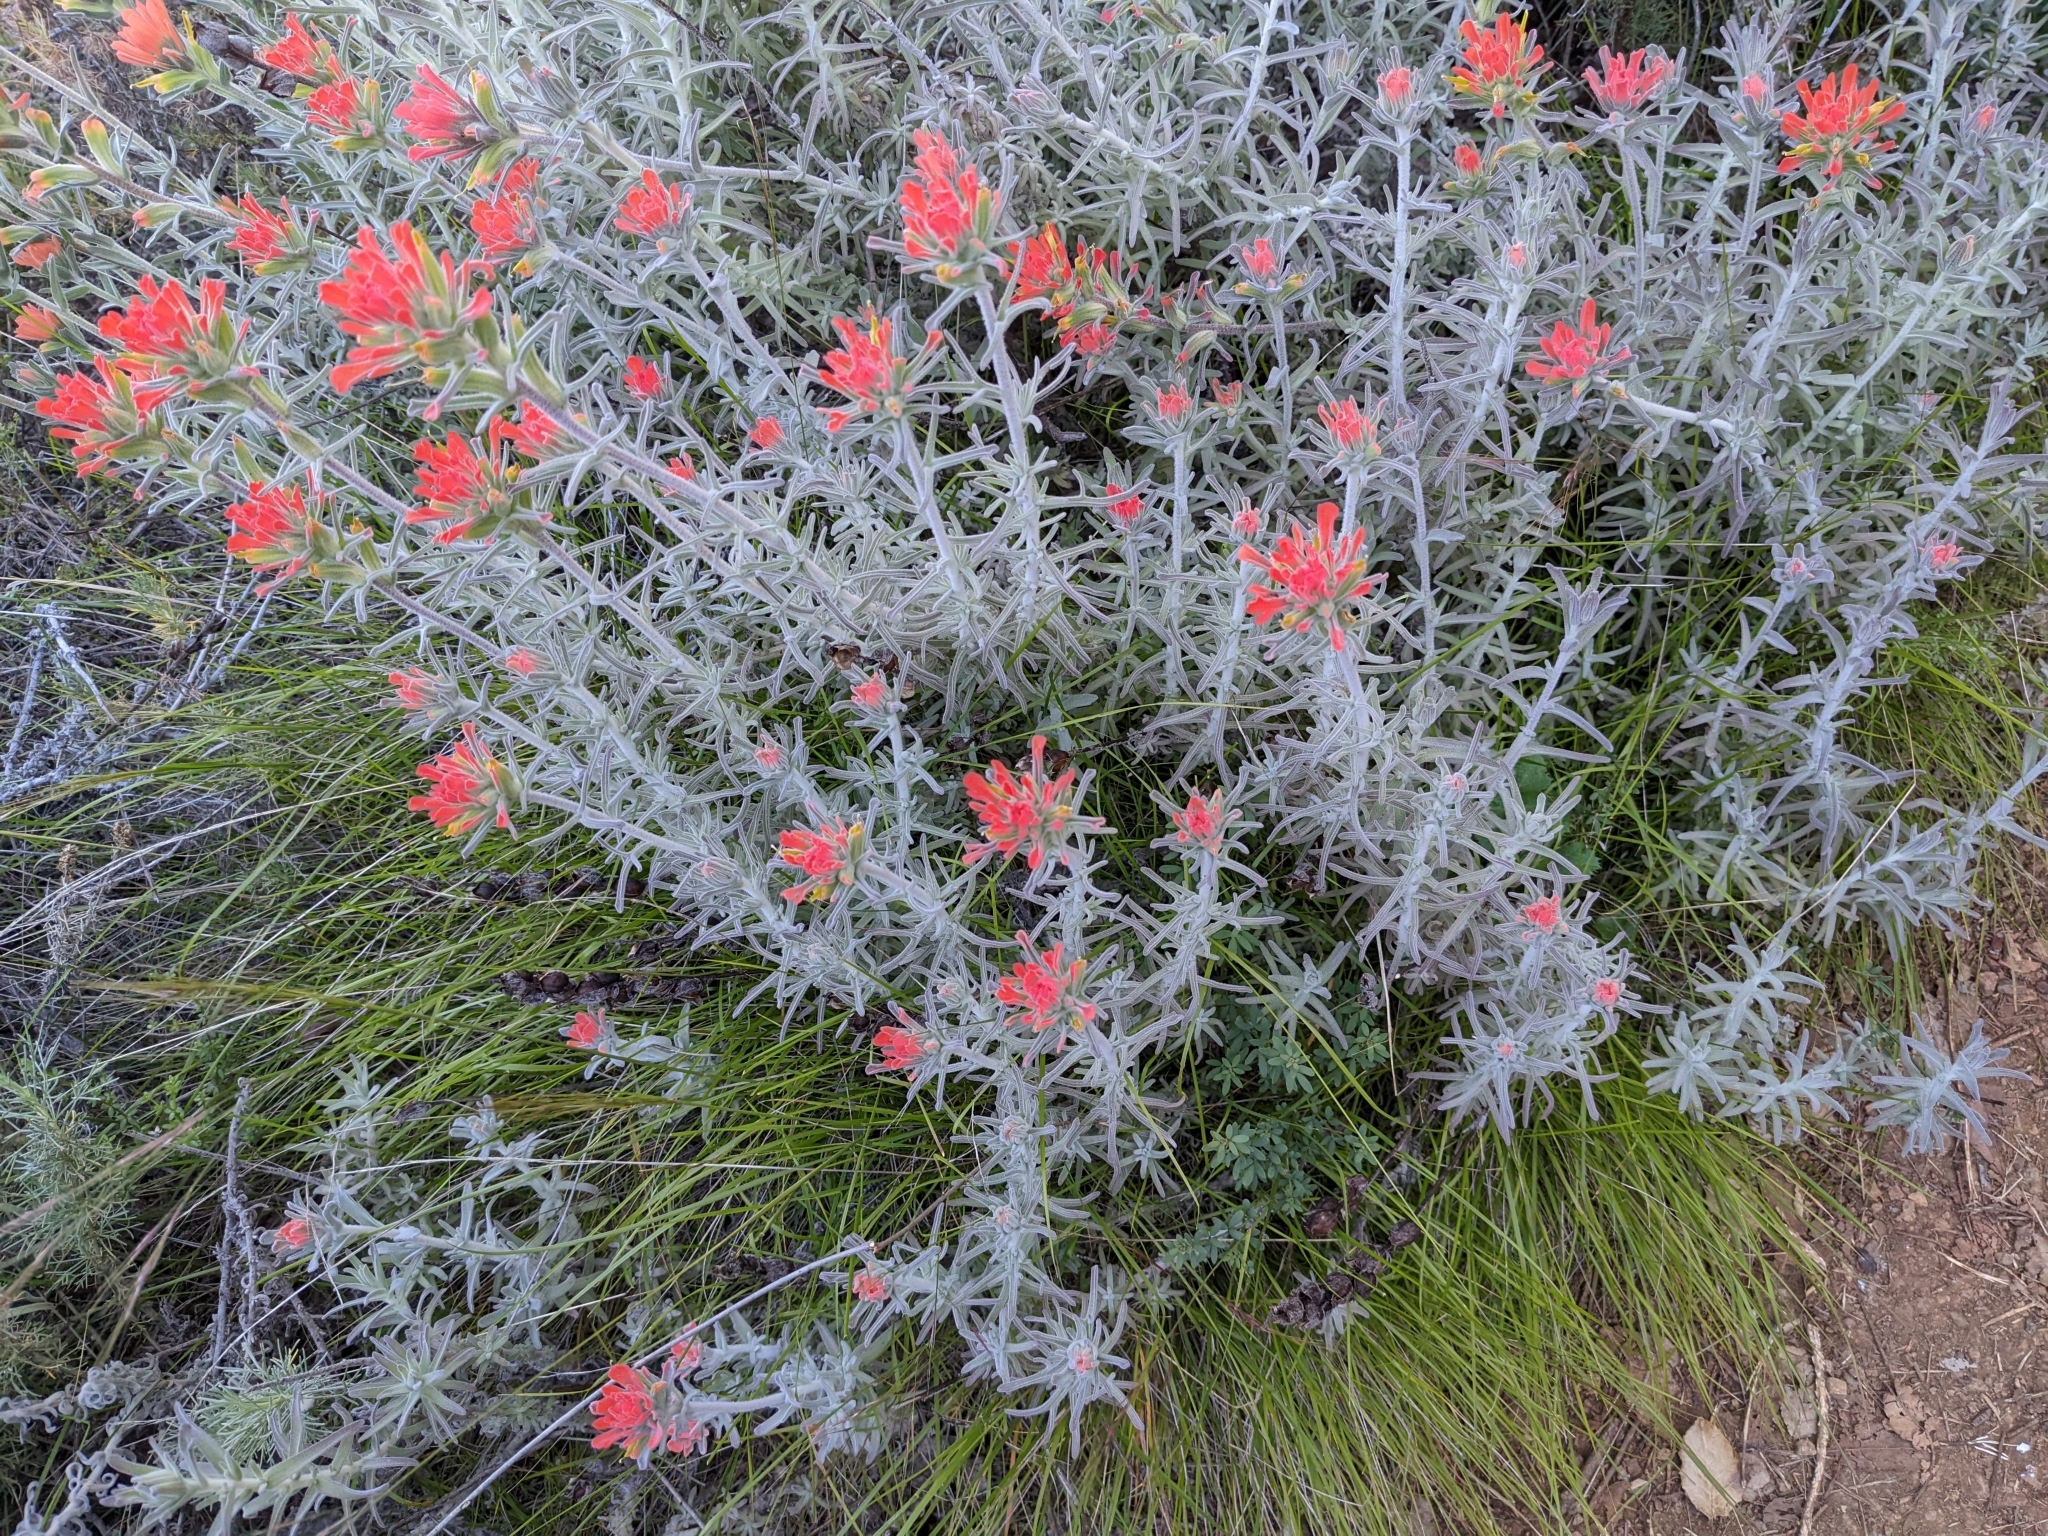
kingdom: Plantae
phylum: Tracheophyta
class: Magnoliopsida
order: Lamiales
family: Orobanchaceae
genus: Castilleja
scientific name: Castilleja foliolosa
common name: Woolly indian paintbrush
